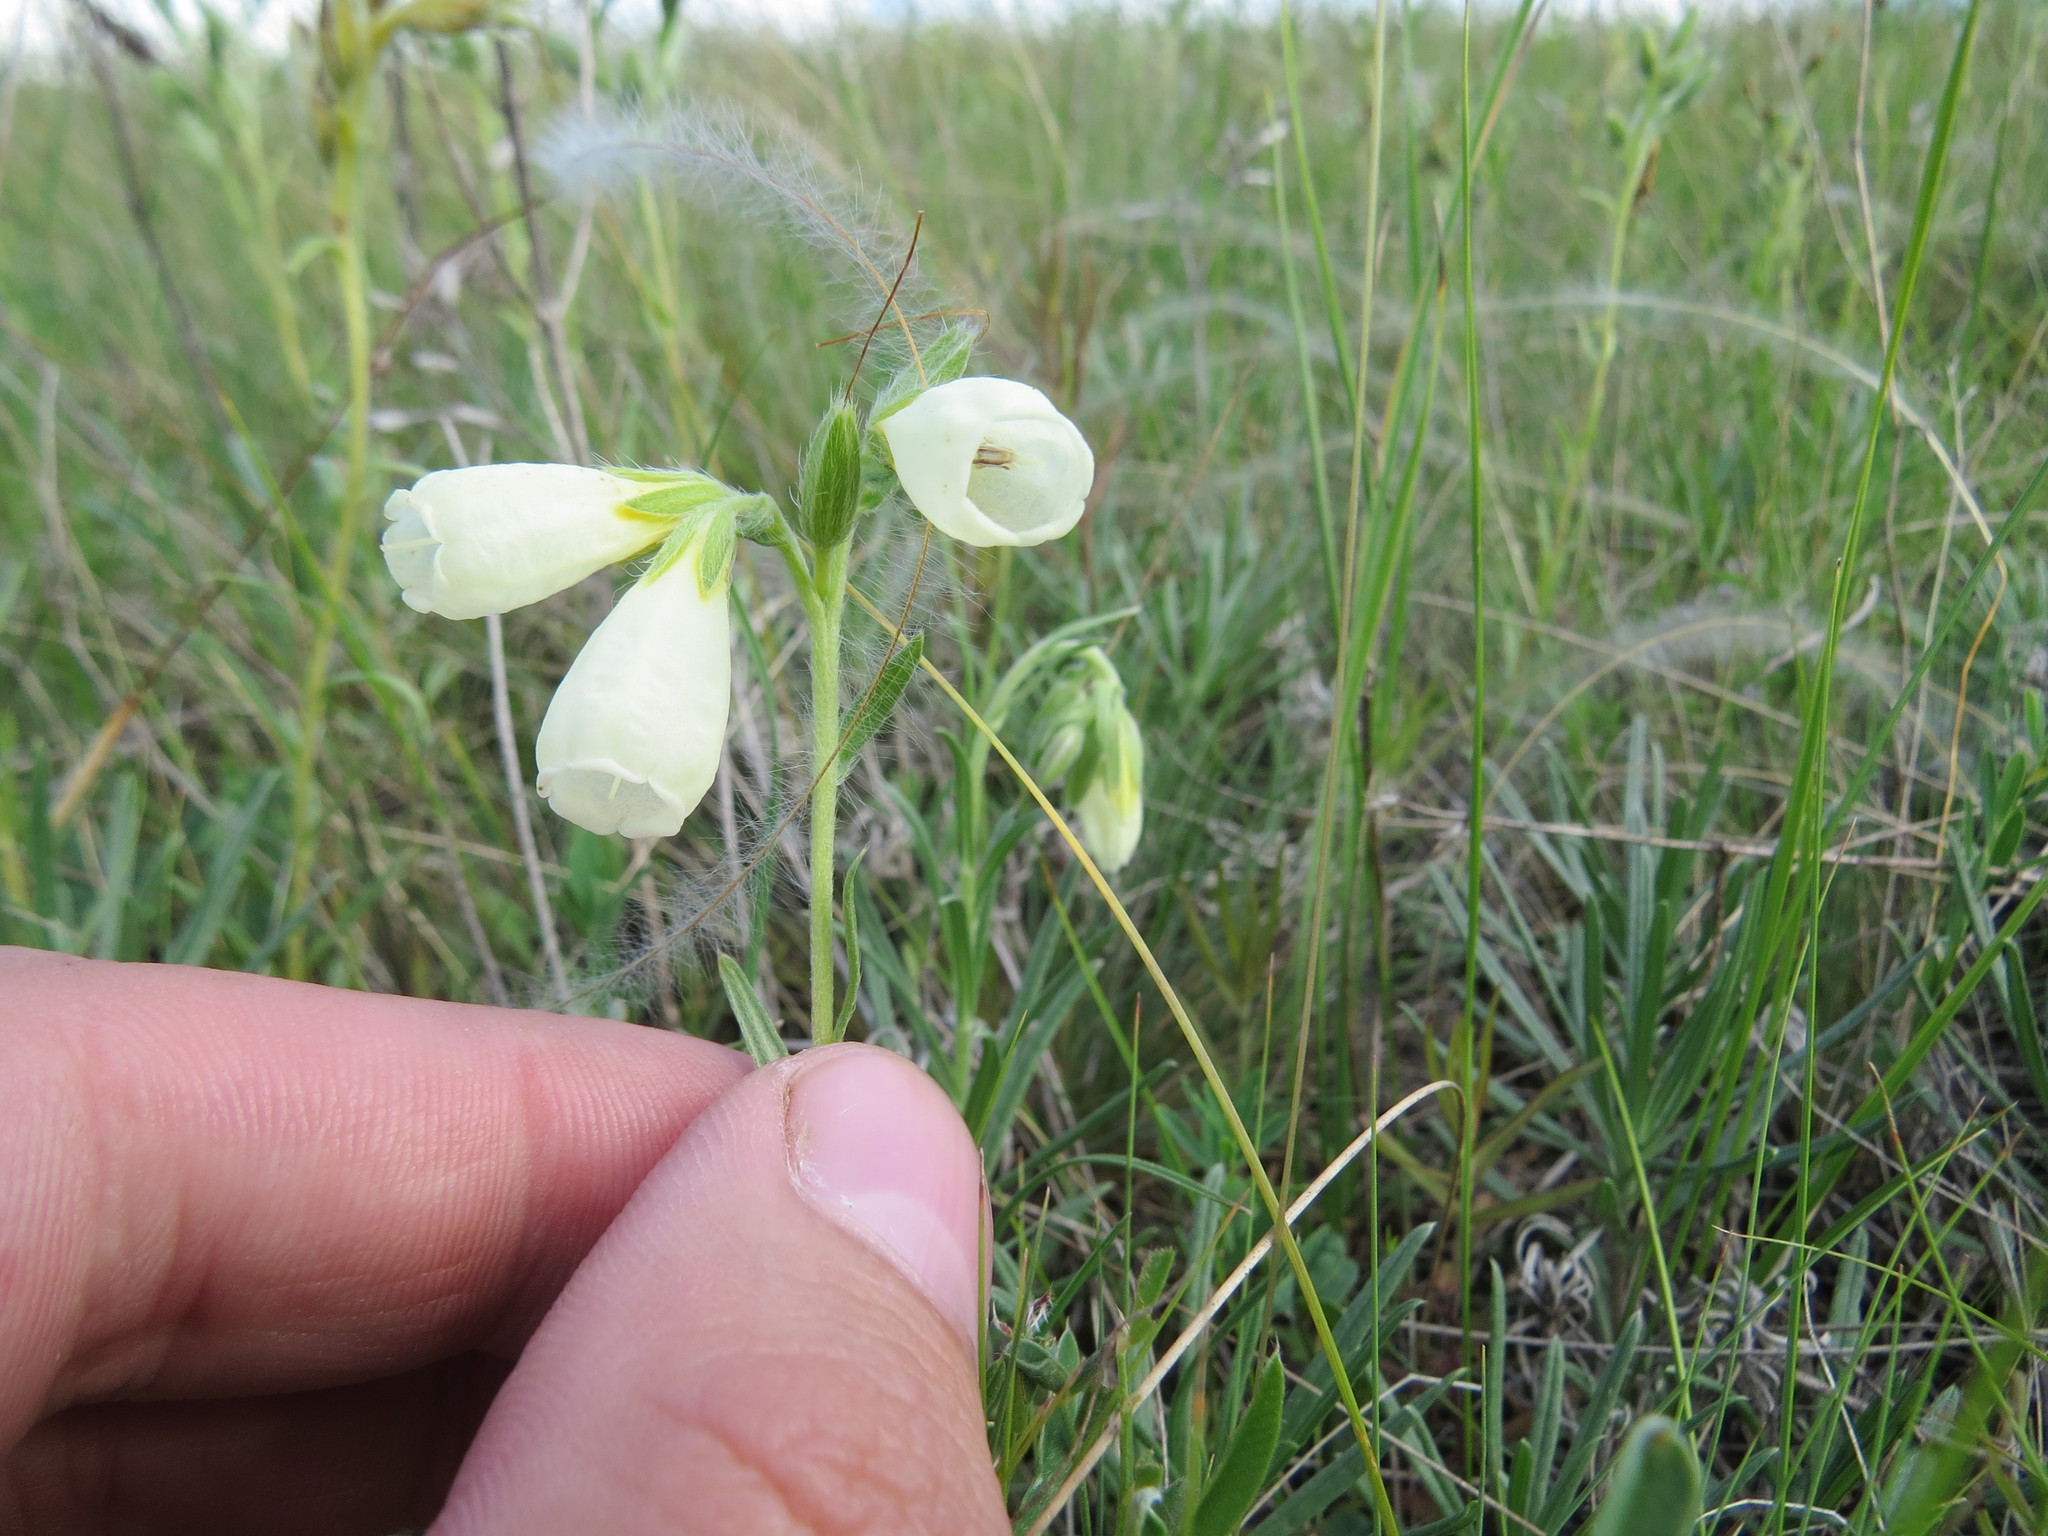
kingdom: Plantae
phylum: Tracheophyta
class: Magnoliopsida
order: Boraginales
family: Boraginaceae
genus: Onosma
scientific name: Onosma simplicissima
